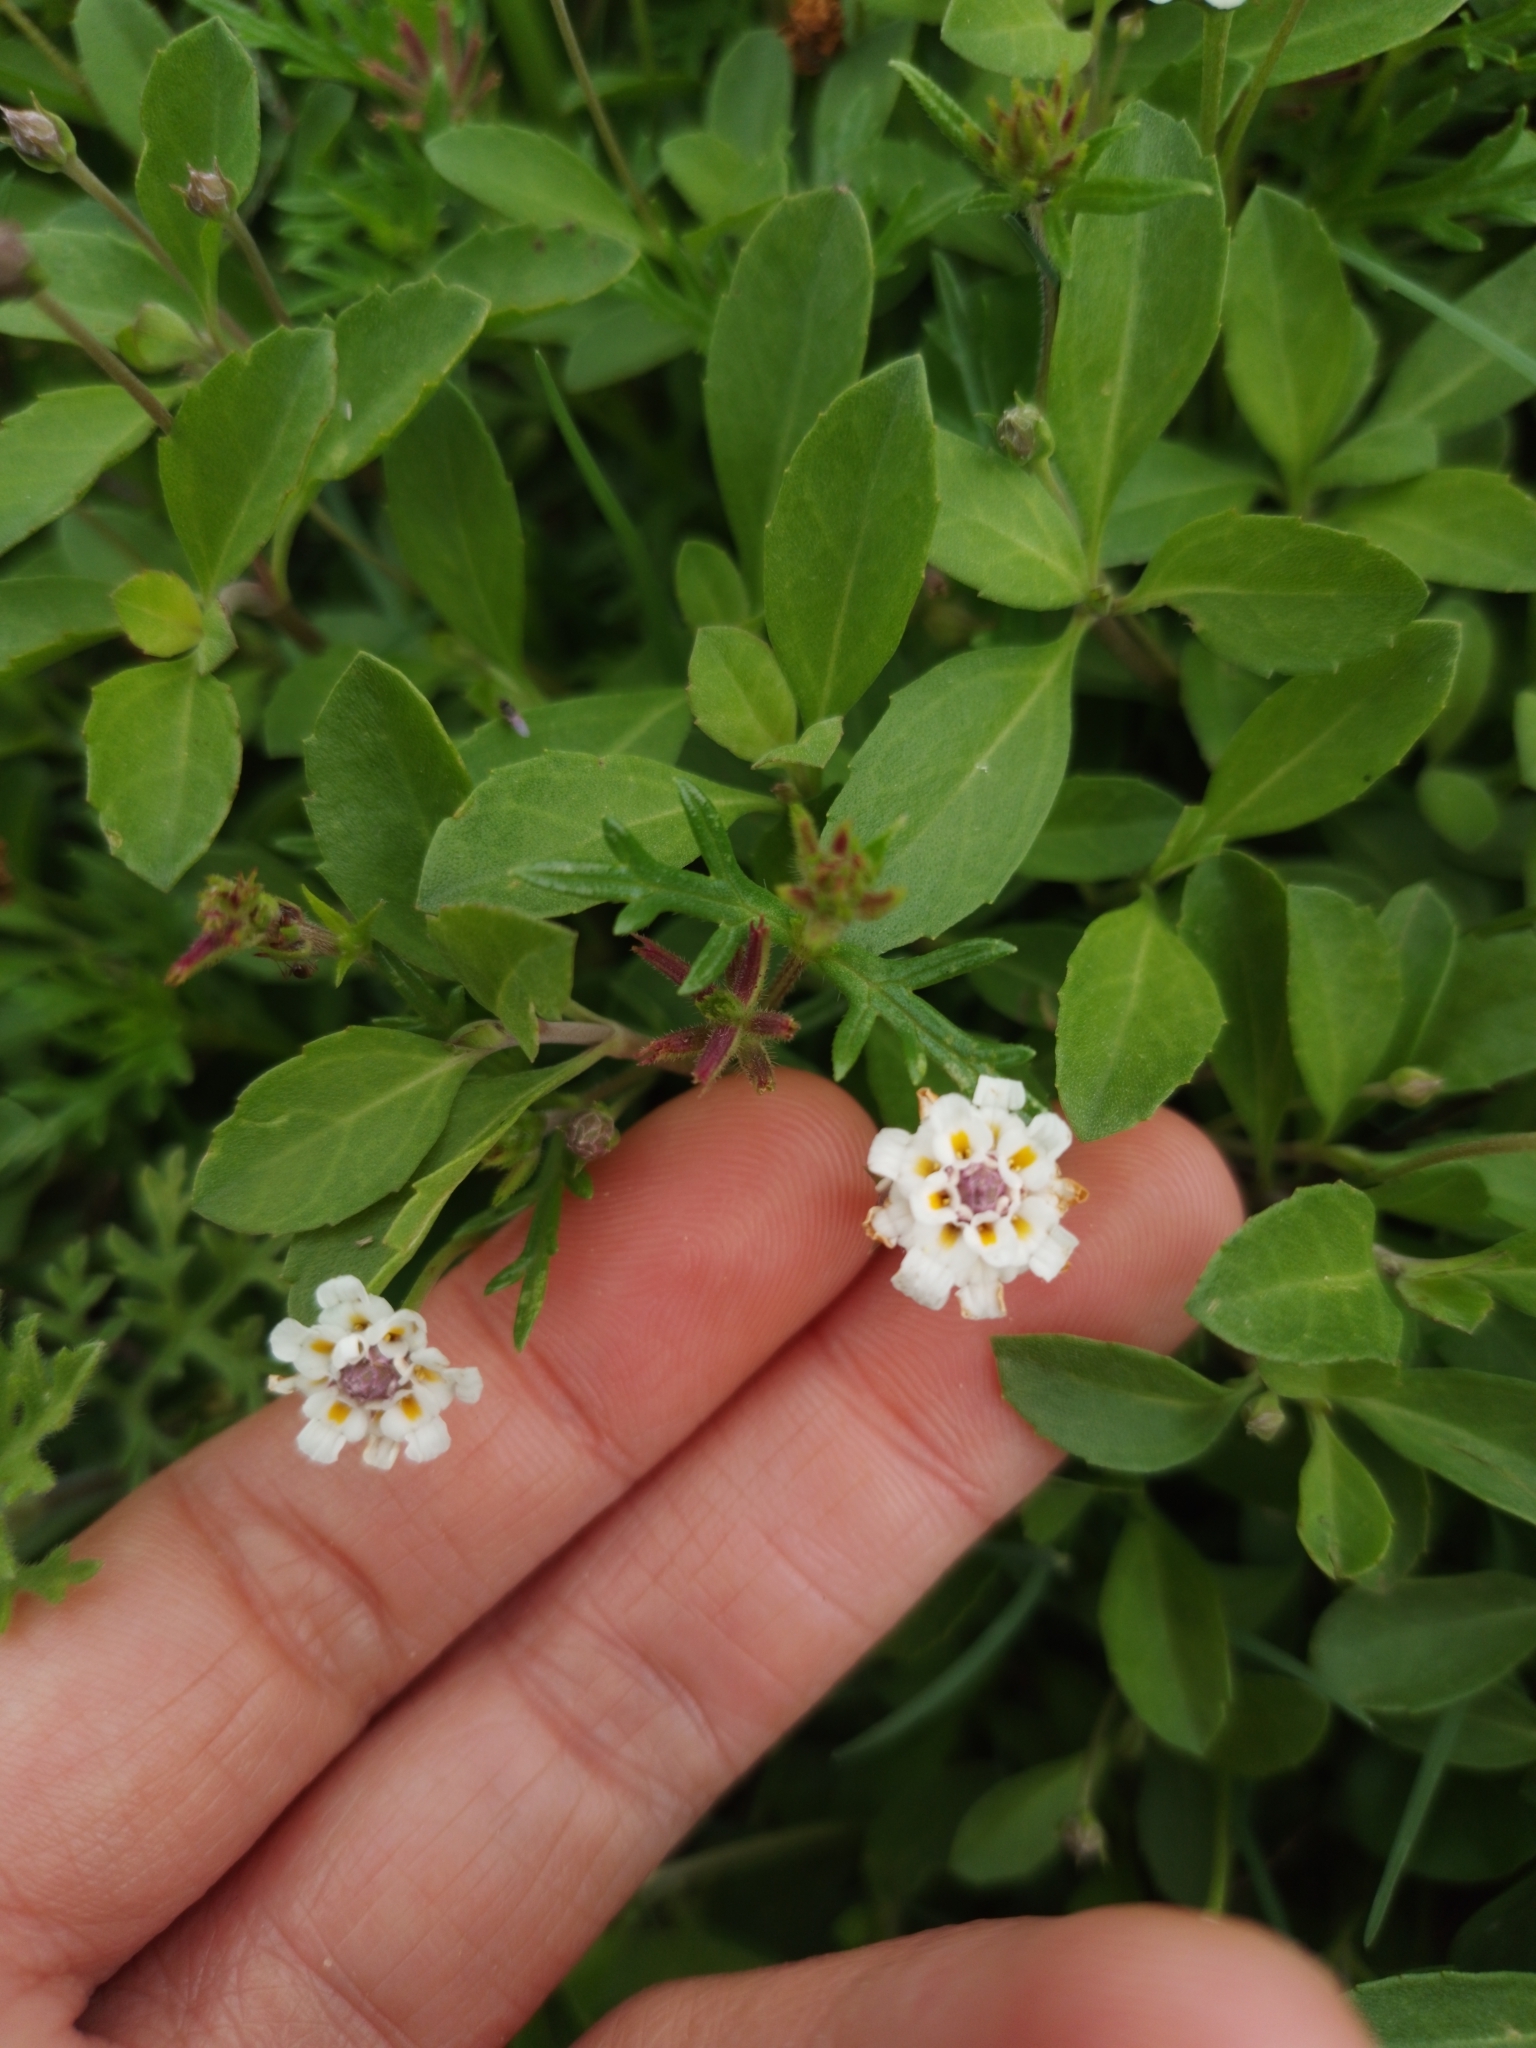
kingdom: Plantae
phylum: Tracheophyta
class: Magnoliopsida
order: Lamiales
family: Verbenaceae
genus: Phyla
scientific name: Phyla nodiflora
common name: Frogfruit
